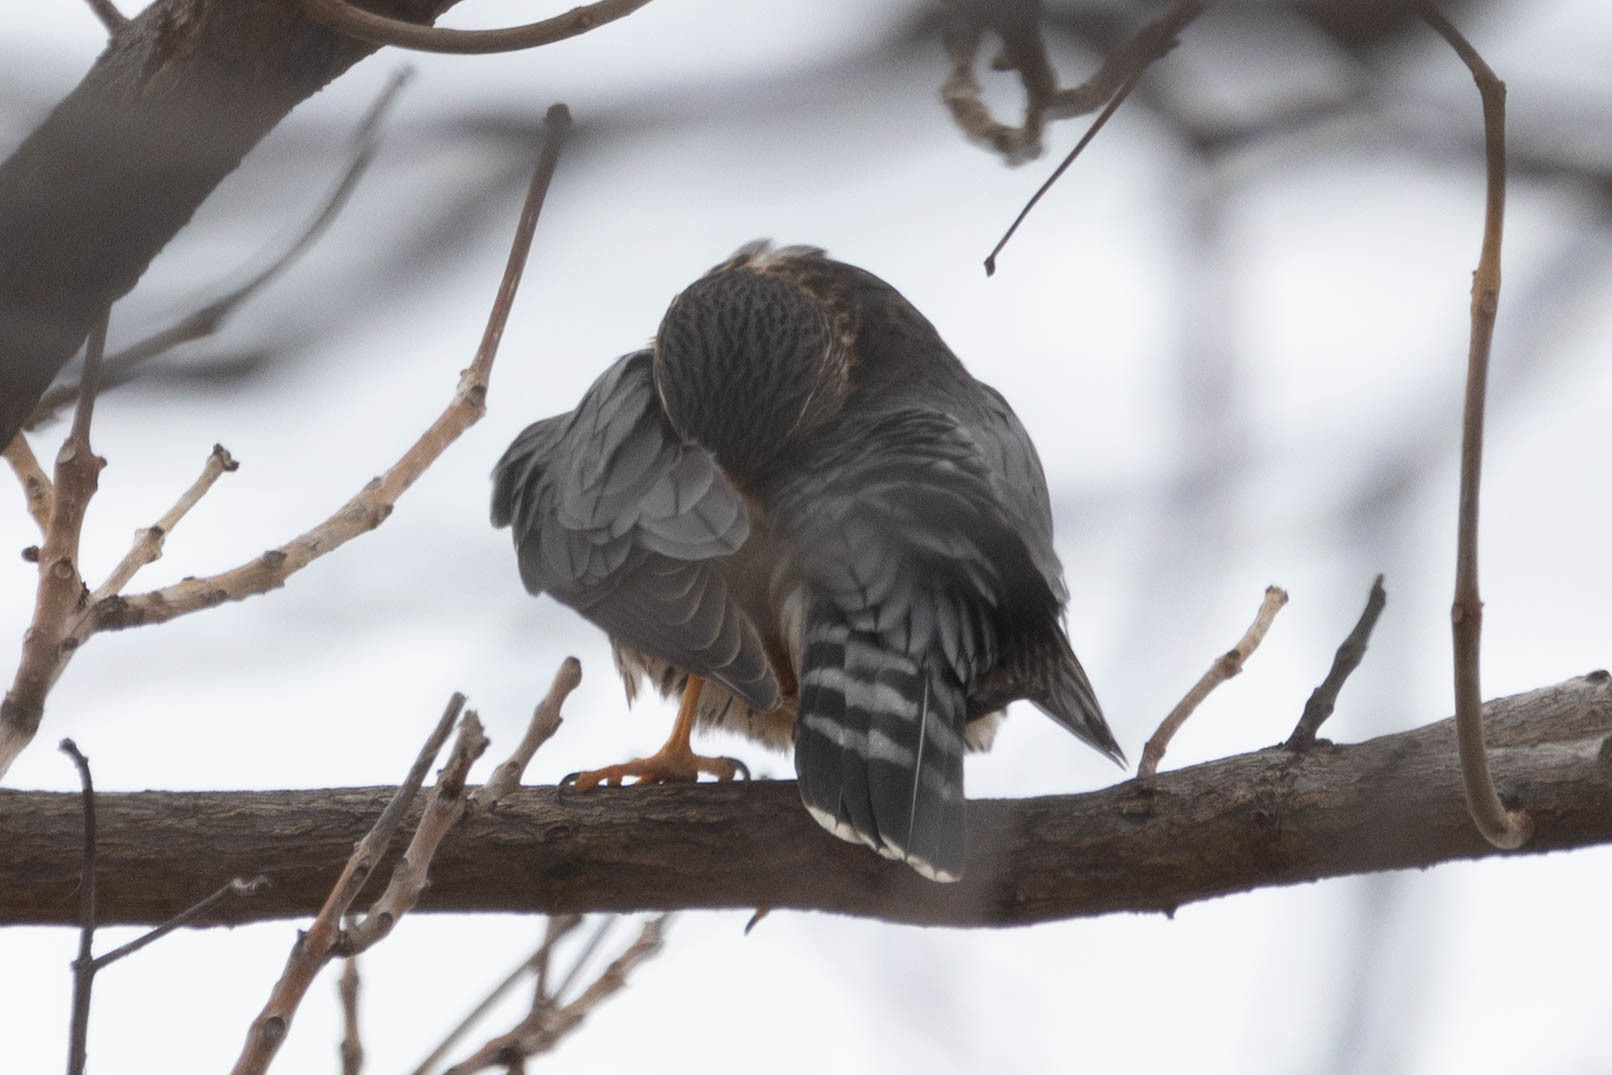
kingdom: Animalia
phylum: Chordata
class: Aves
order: Falconiformes
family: Falconidae
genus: Falco
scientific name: Falco columbarius
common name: Merlin
